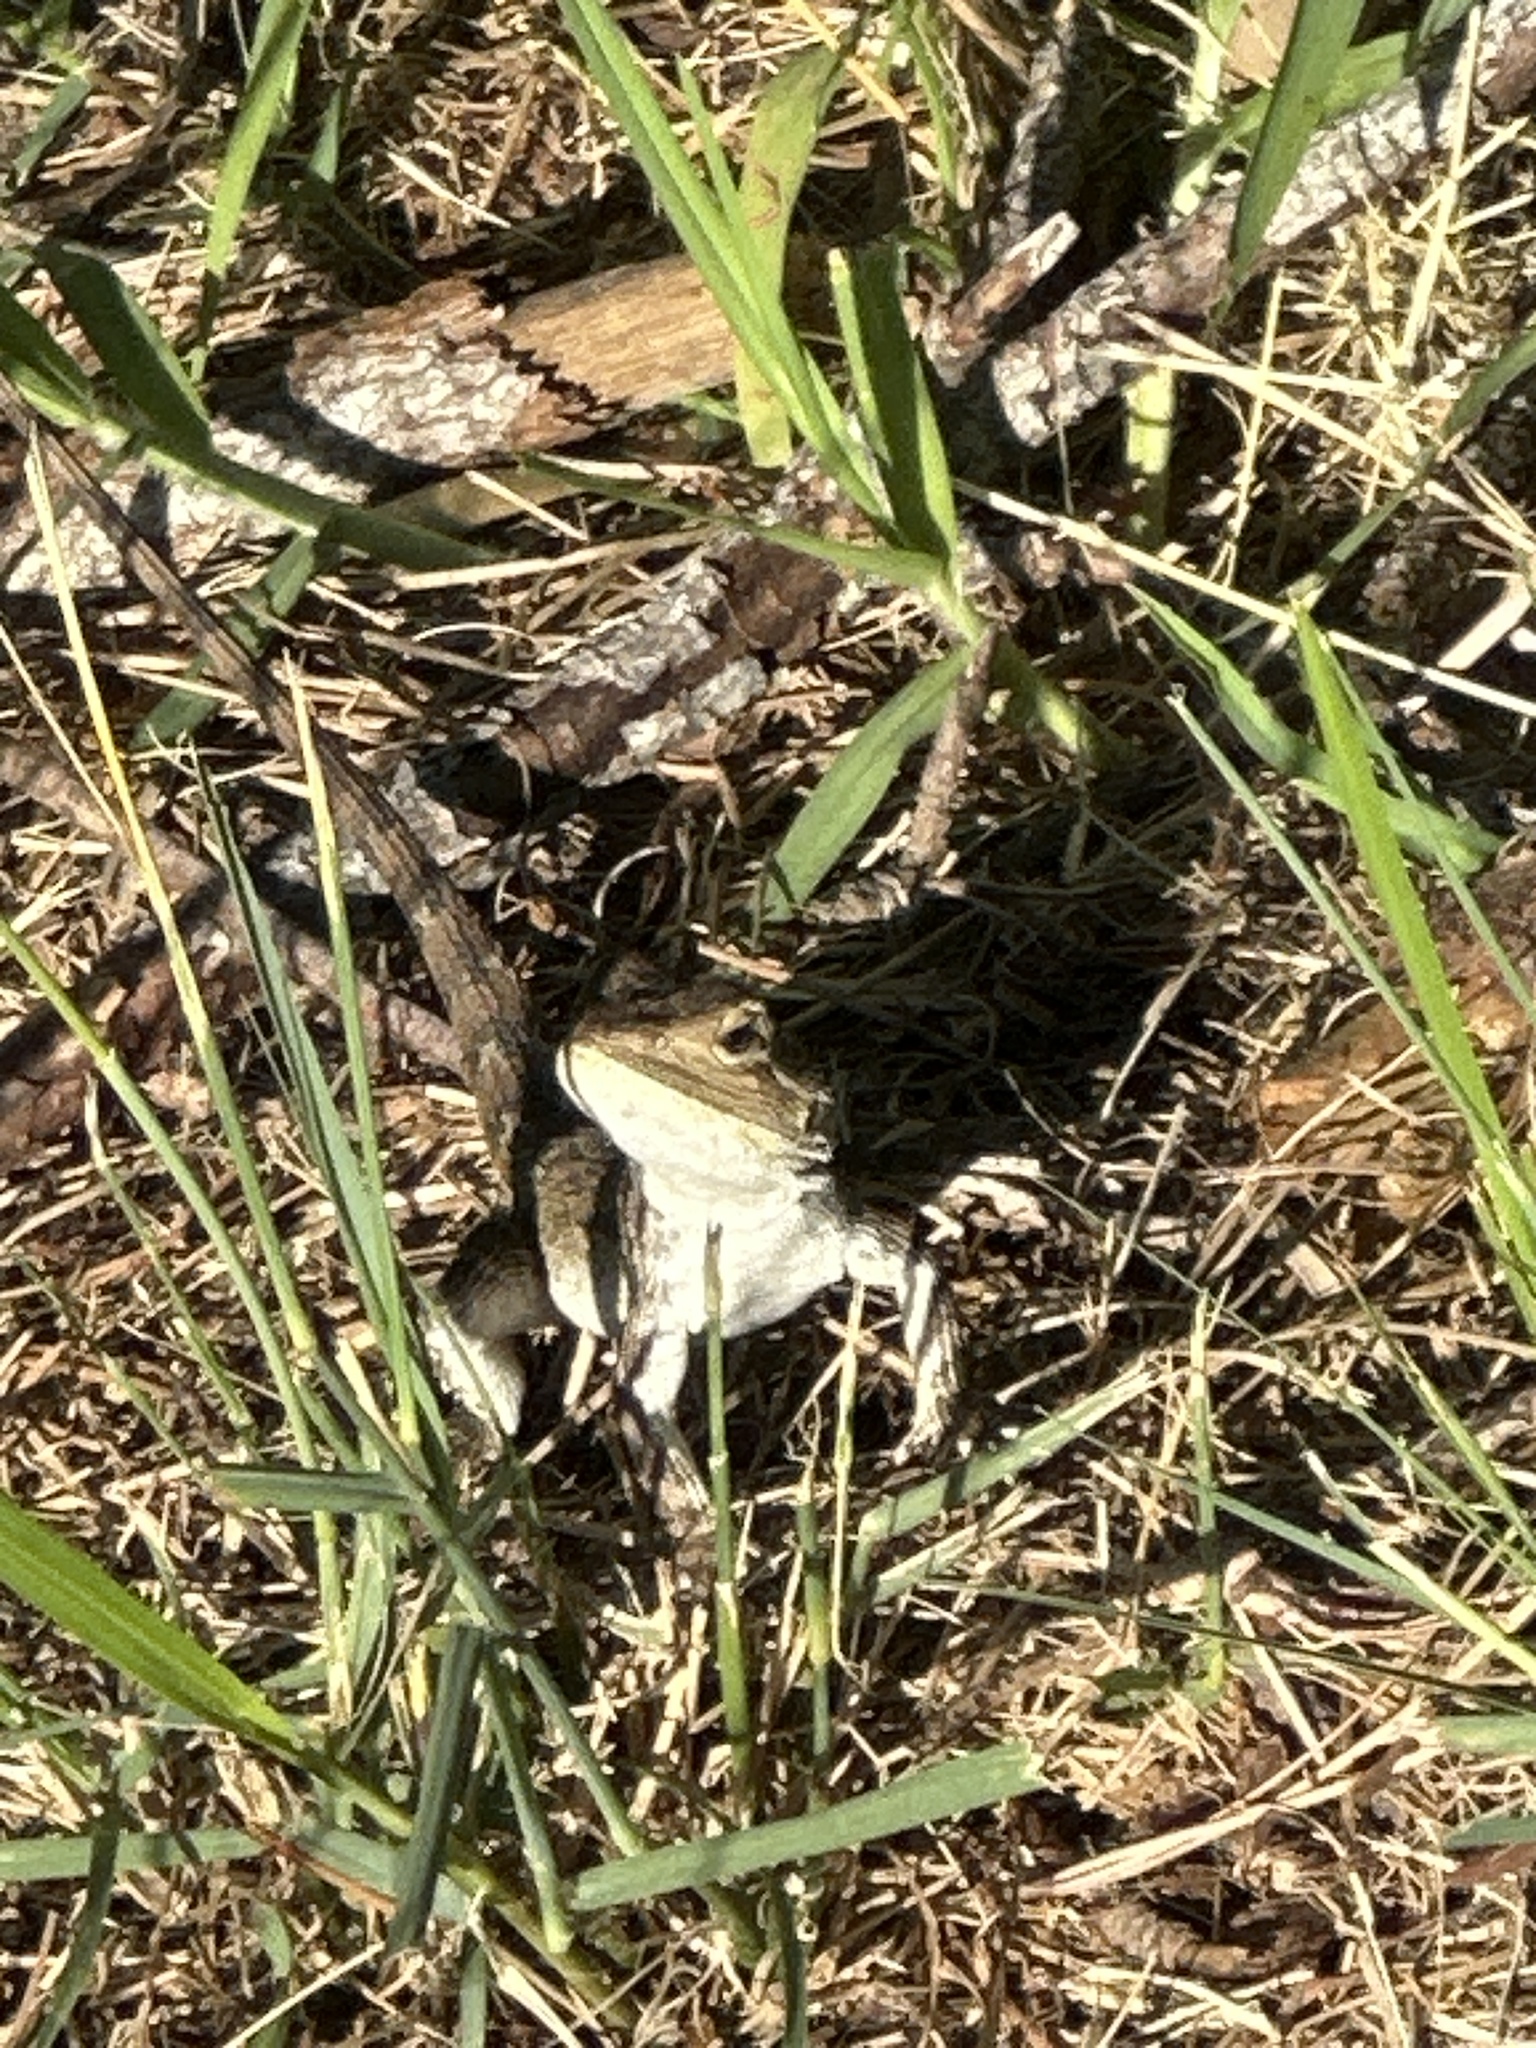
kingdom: Animalia
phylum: Chordata
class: Squamata
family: Agamidae
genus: Amphibolurus
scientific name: Amphibolurus muricatus
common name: Jacky lizard
